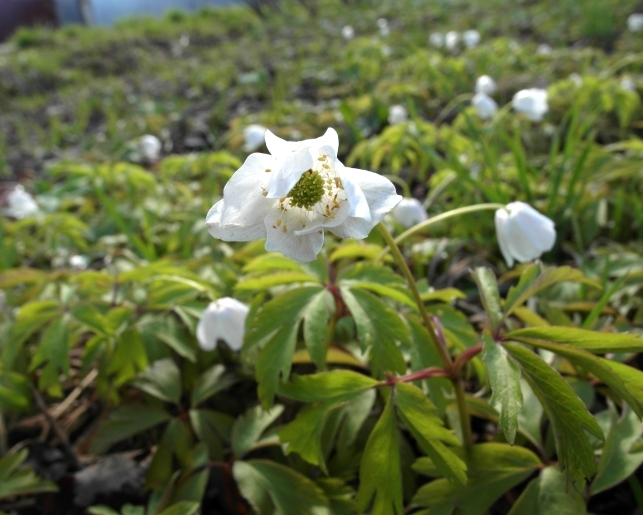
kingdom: Plantae
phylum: Tracheophyta
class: Magnoliopsida
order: Ranunculales
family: Ranunculaceae
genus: Anemone
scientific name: Anemone nemorosa
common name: Wood anemone
